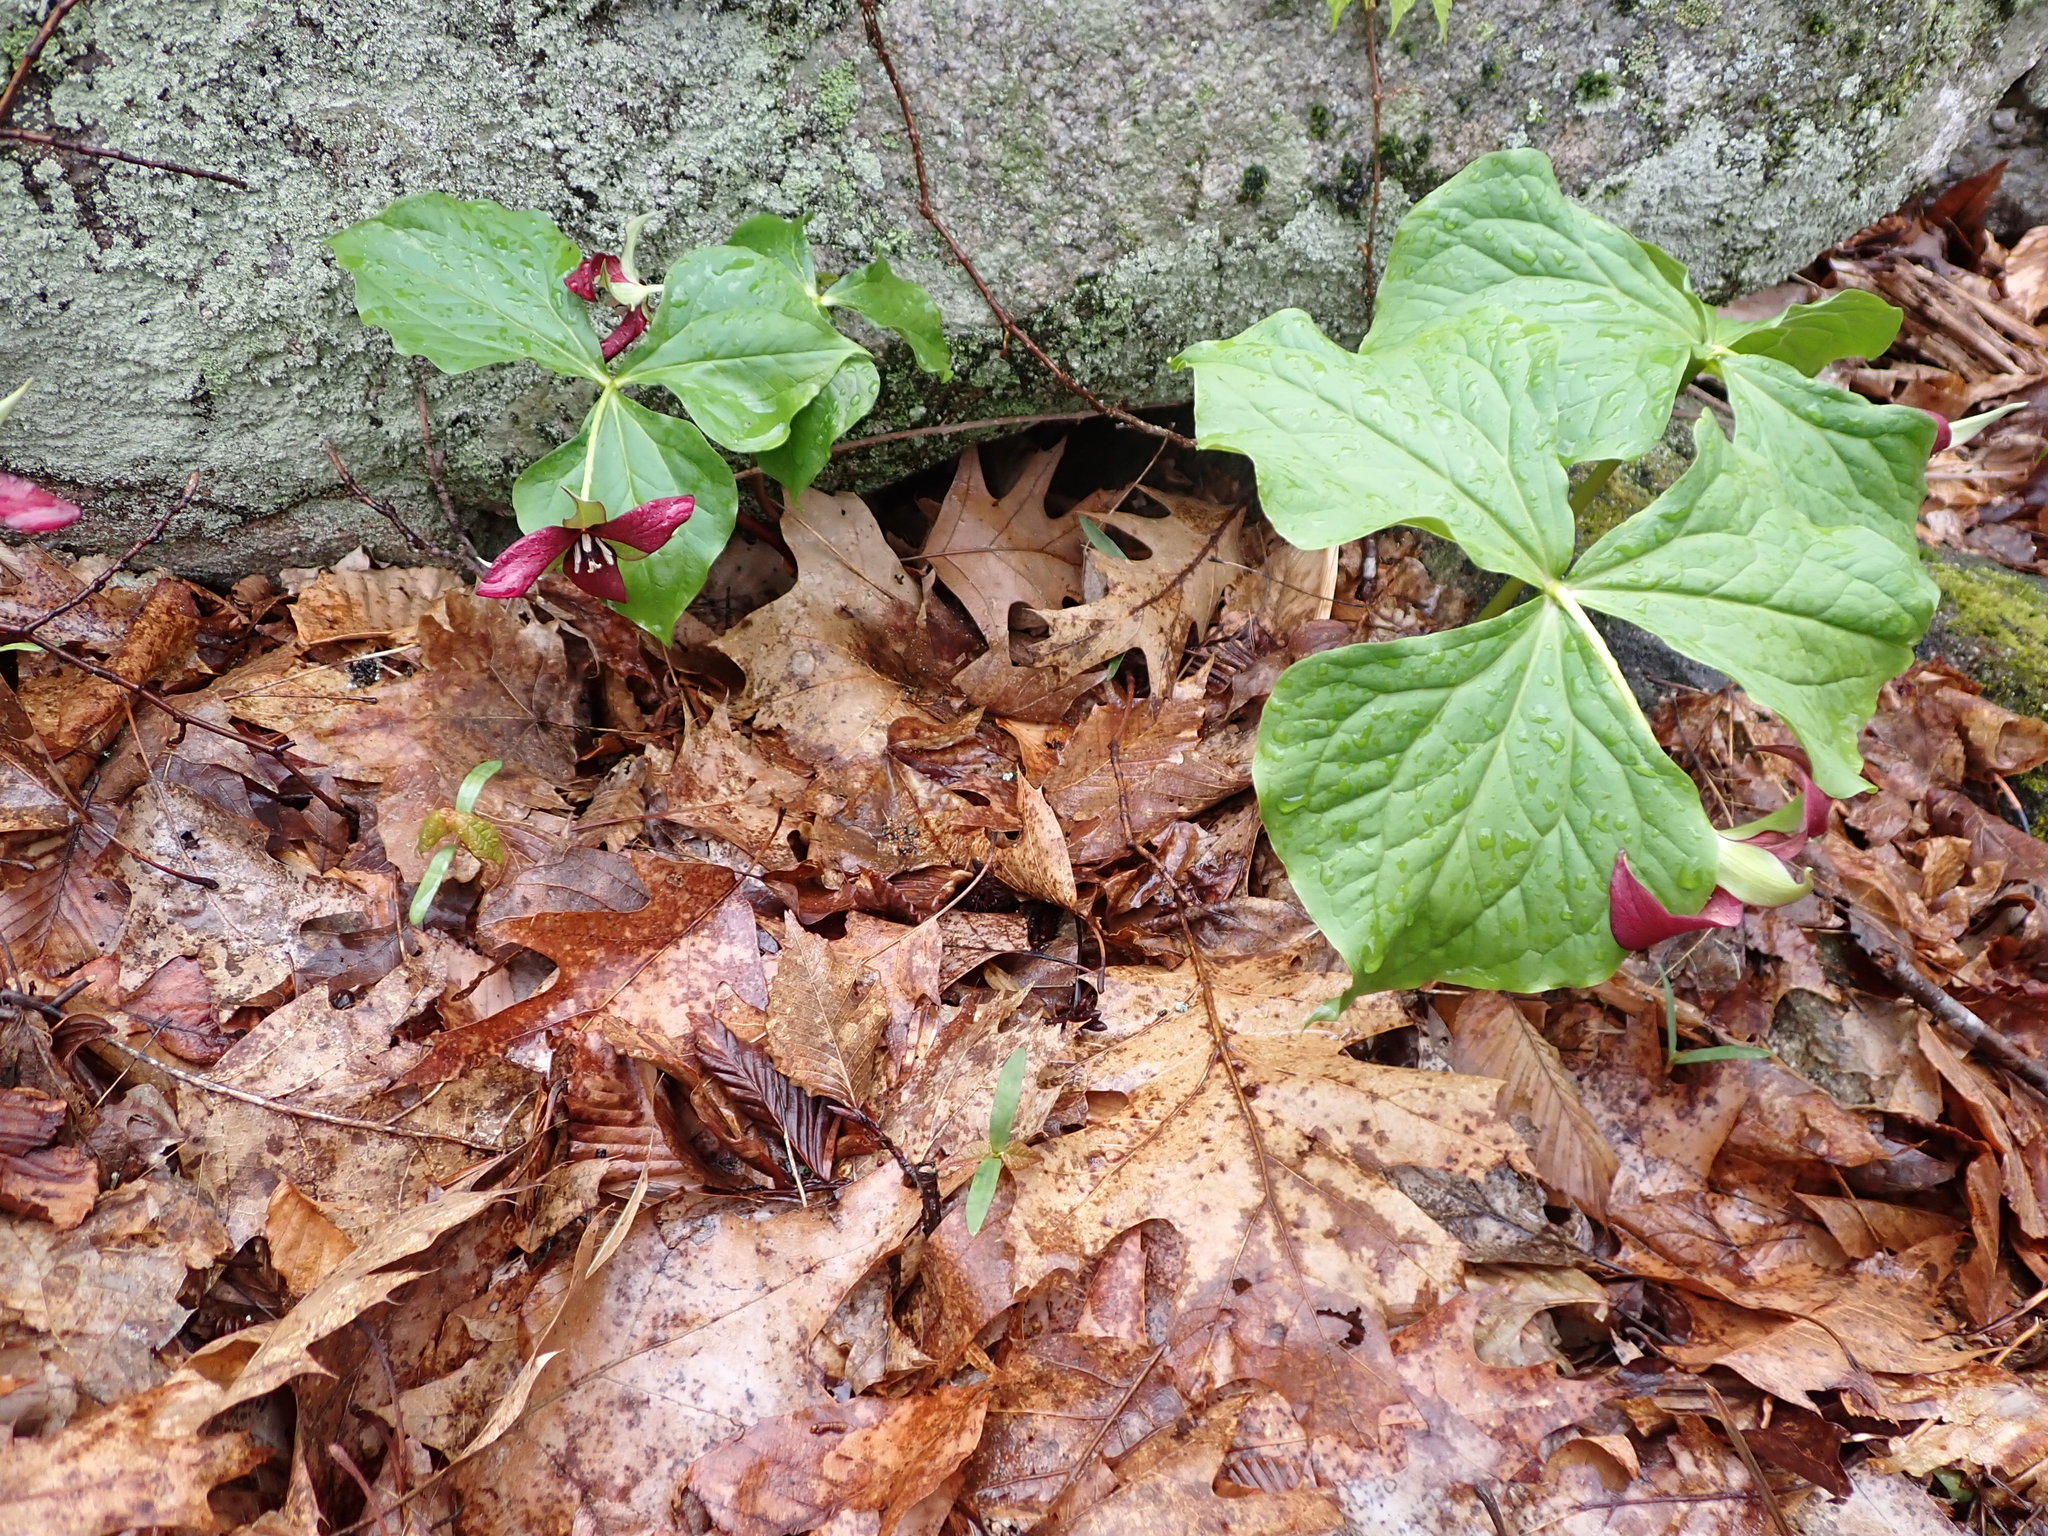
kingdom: Plantae
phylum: Tracheophyta
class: Liliopsida
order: Liliales
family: Melanthiaceae
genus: Trillium
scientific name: Trillium erectum
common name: Purple trillium
